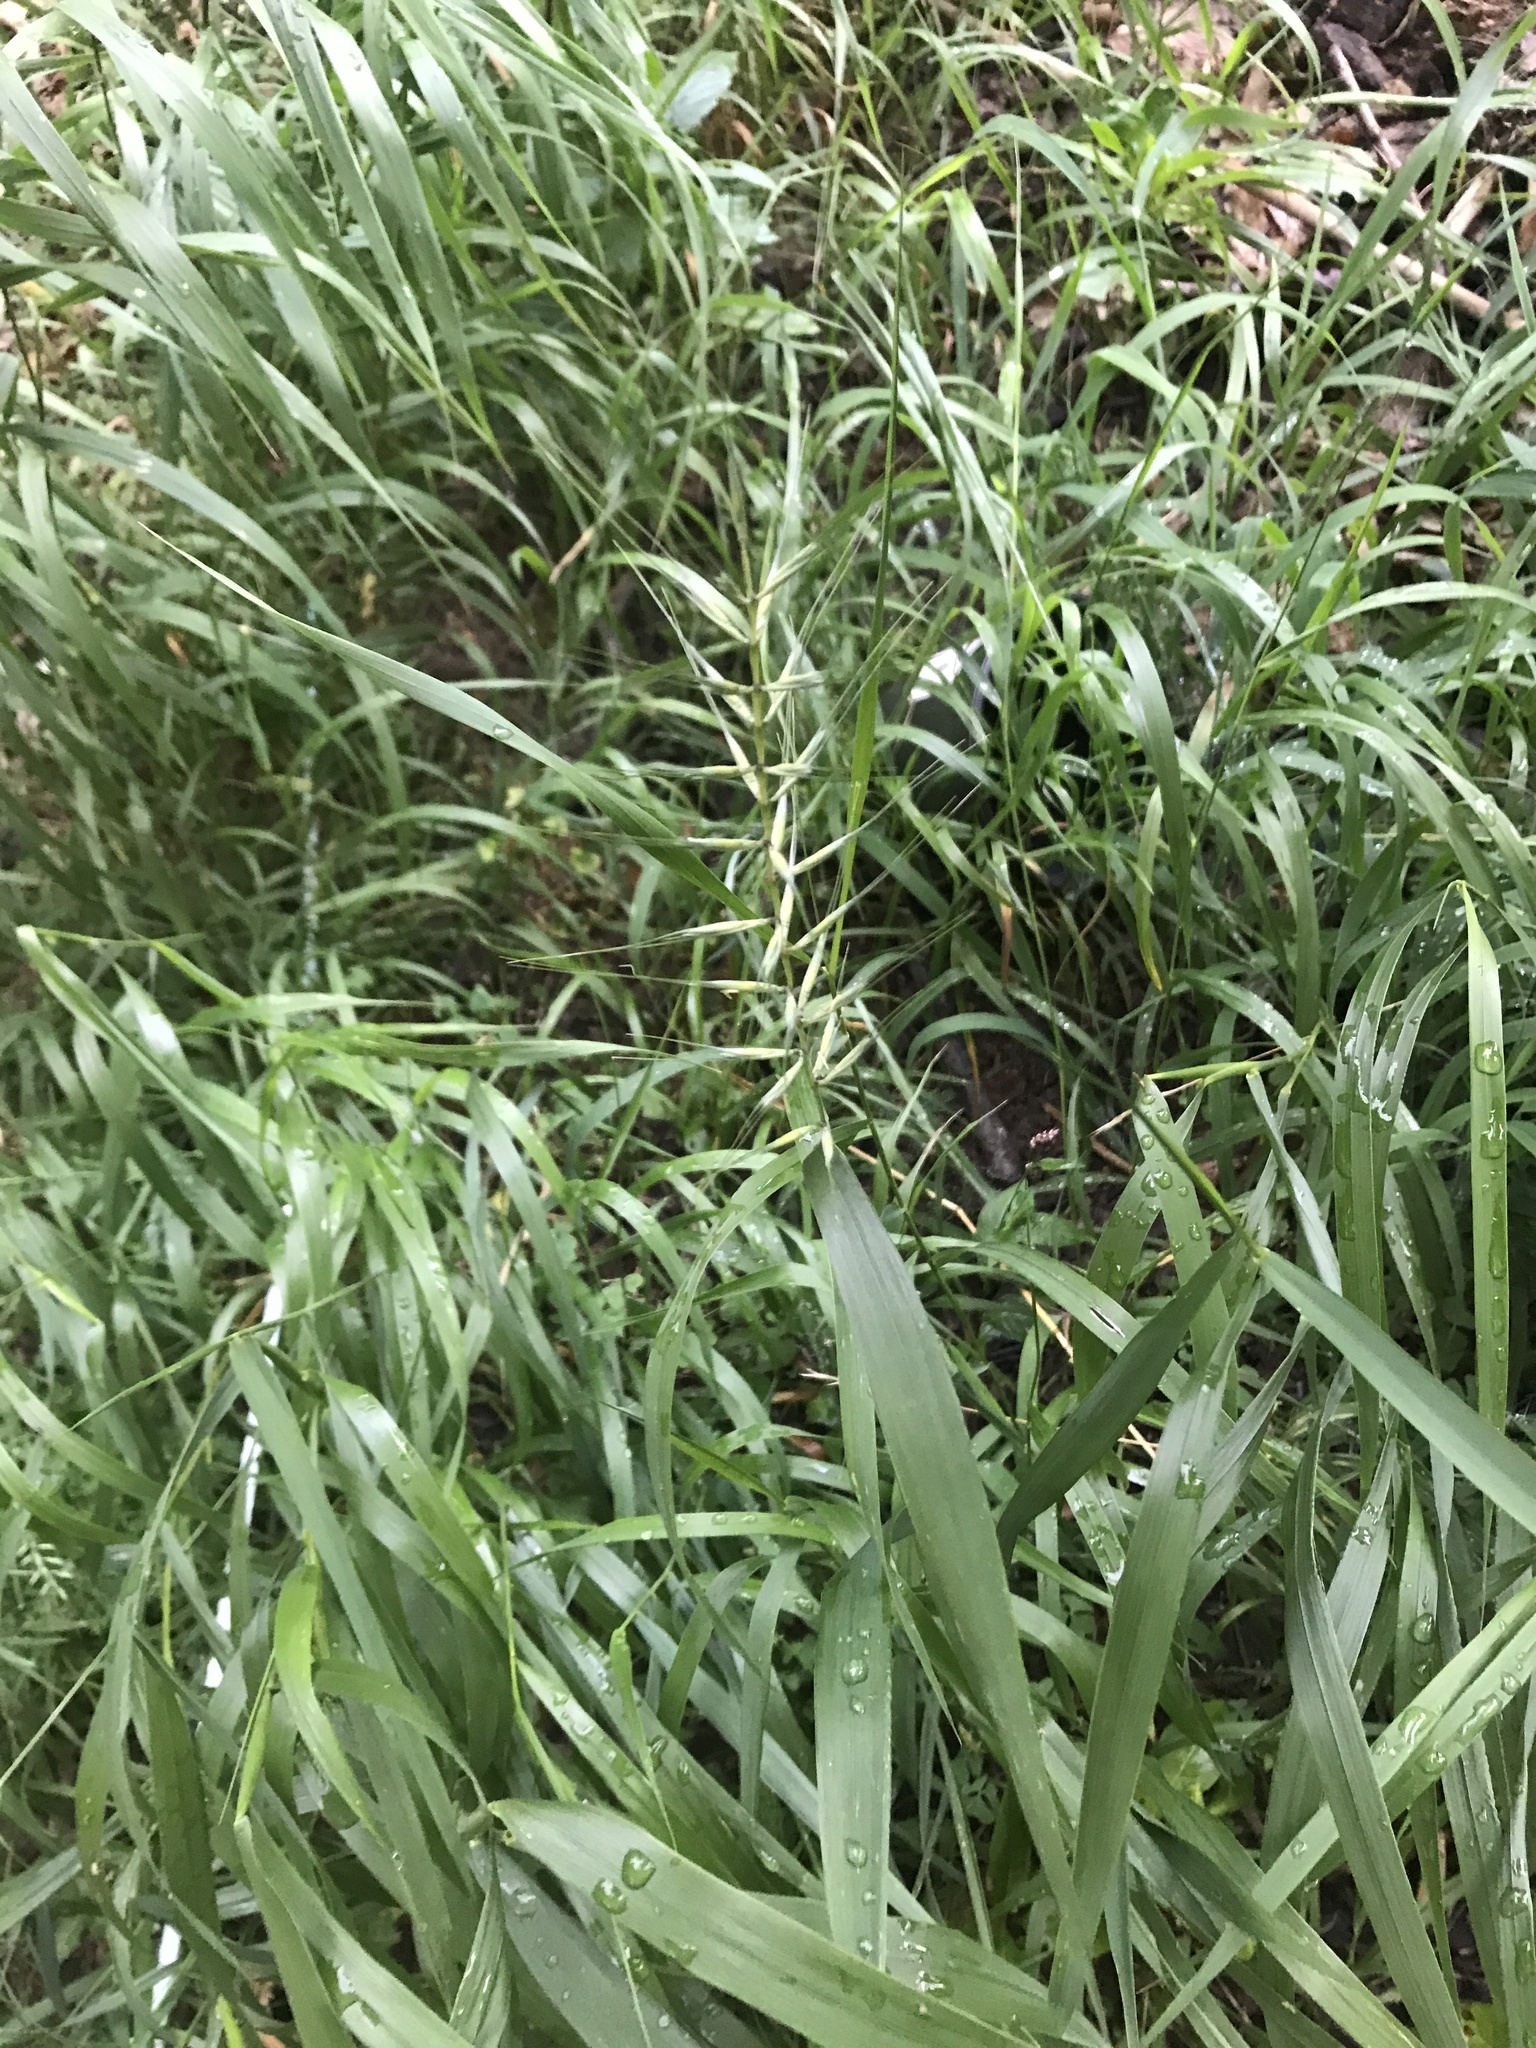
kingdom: Plantae
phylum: Tracheophyta
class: Liliopsida
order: Poales
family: Poaceae
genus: Elymus
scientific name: Elymus hystrix
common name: Bottlebrush grass
